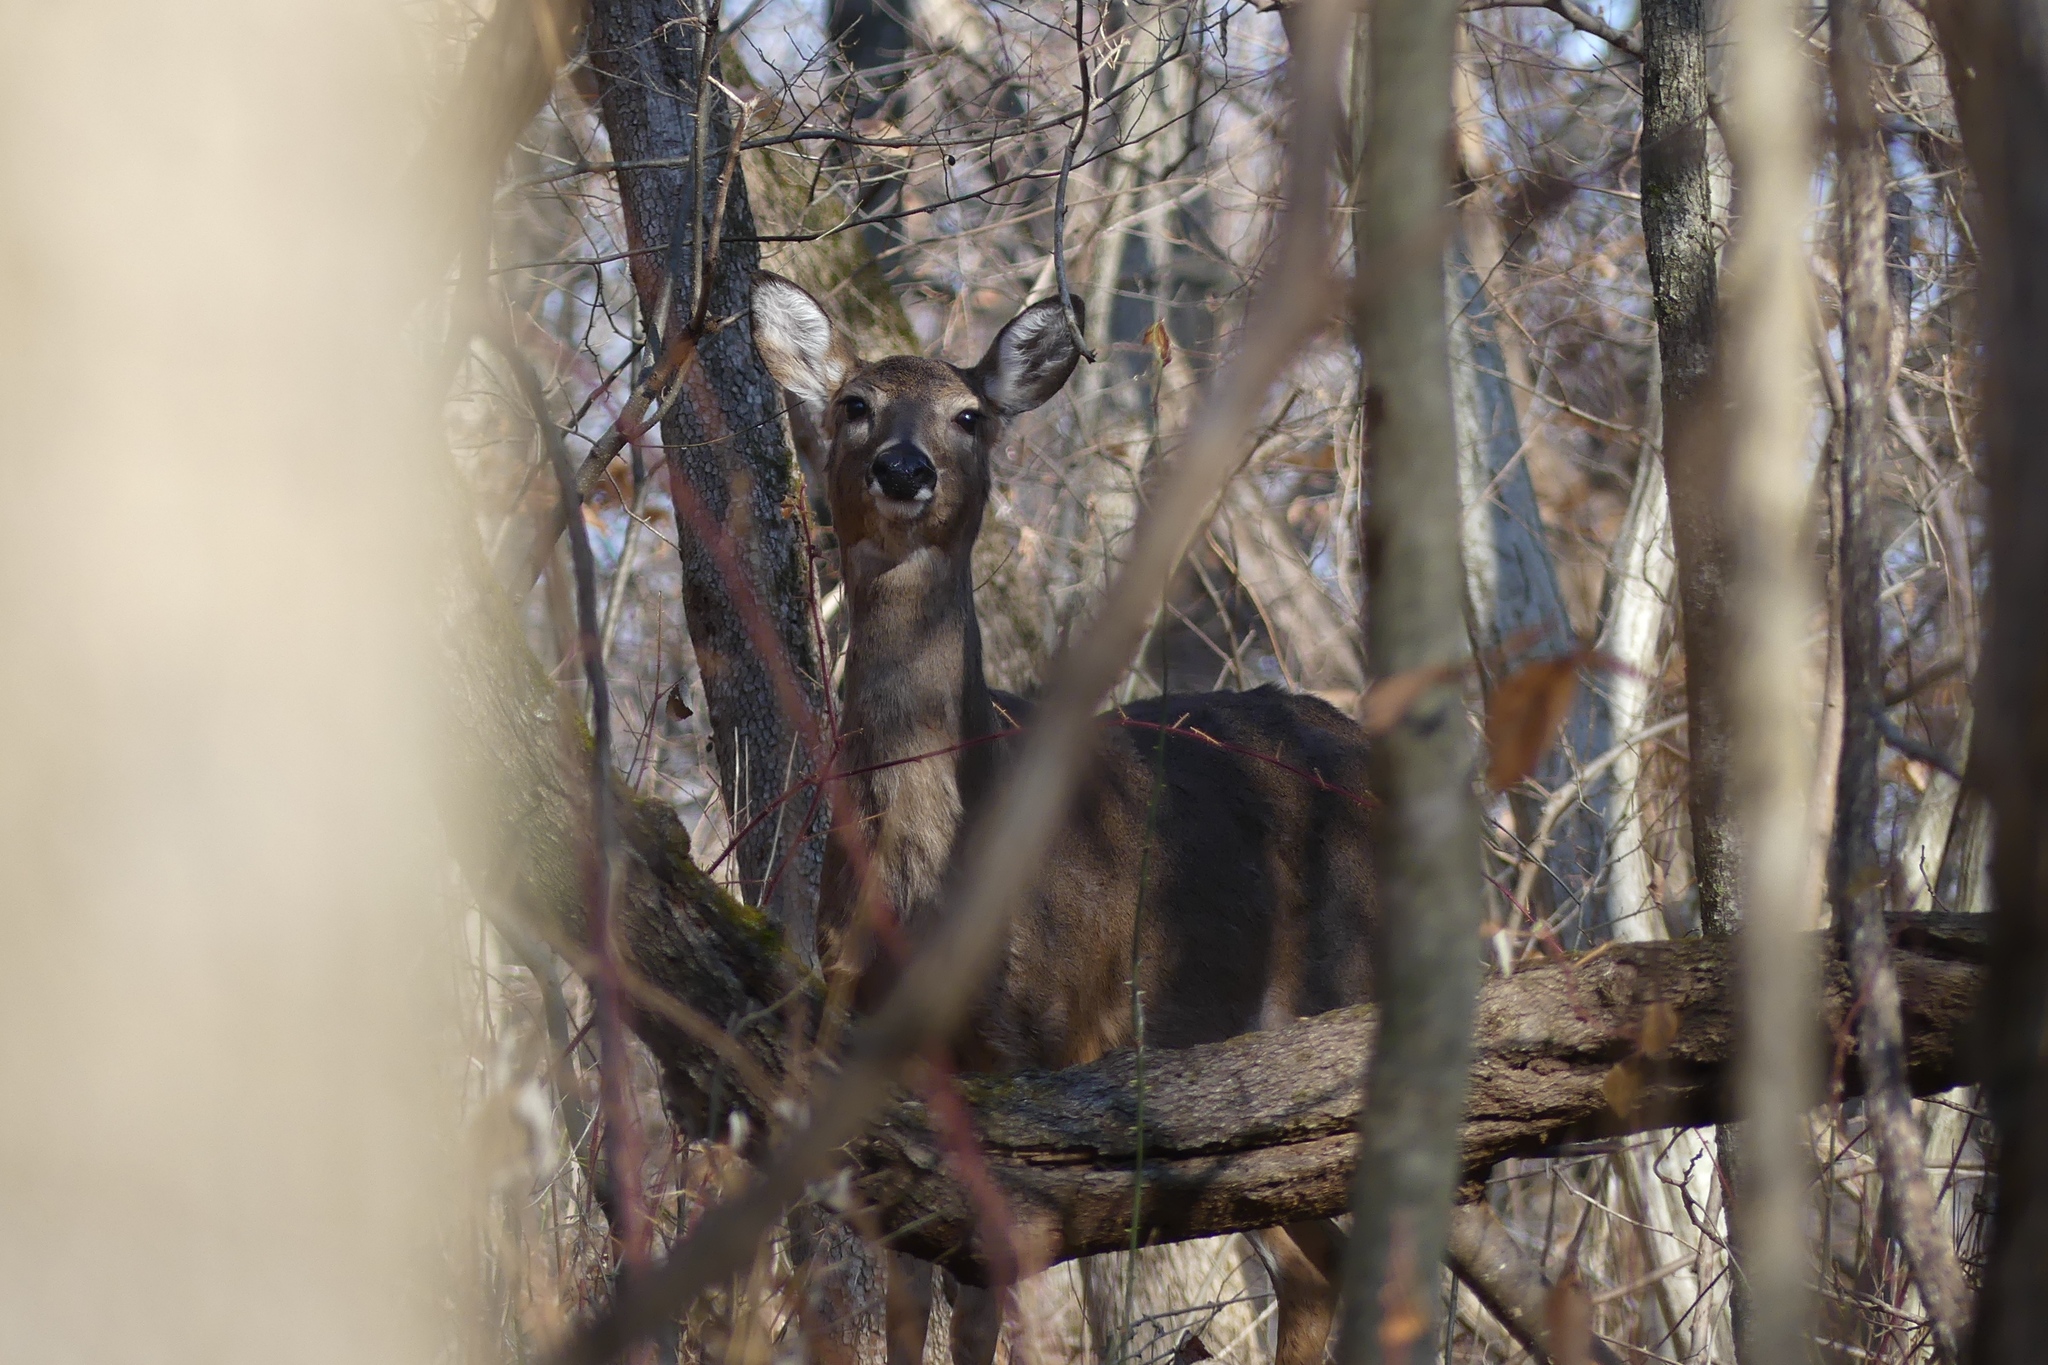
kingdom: Animalia
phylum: Chordata
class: Mammalia
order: Artiodactyla
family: Cervidae
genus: Odocoileus
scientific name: Odocoileus virginianus
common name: White-tailed deer
